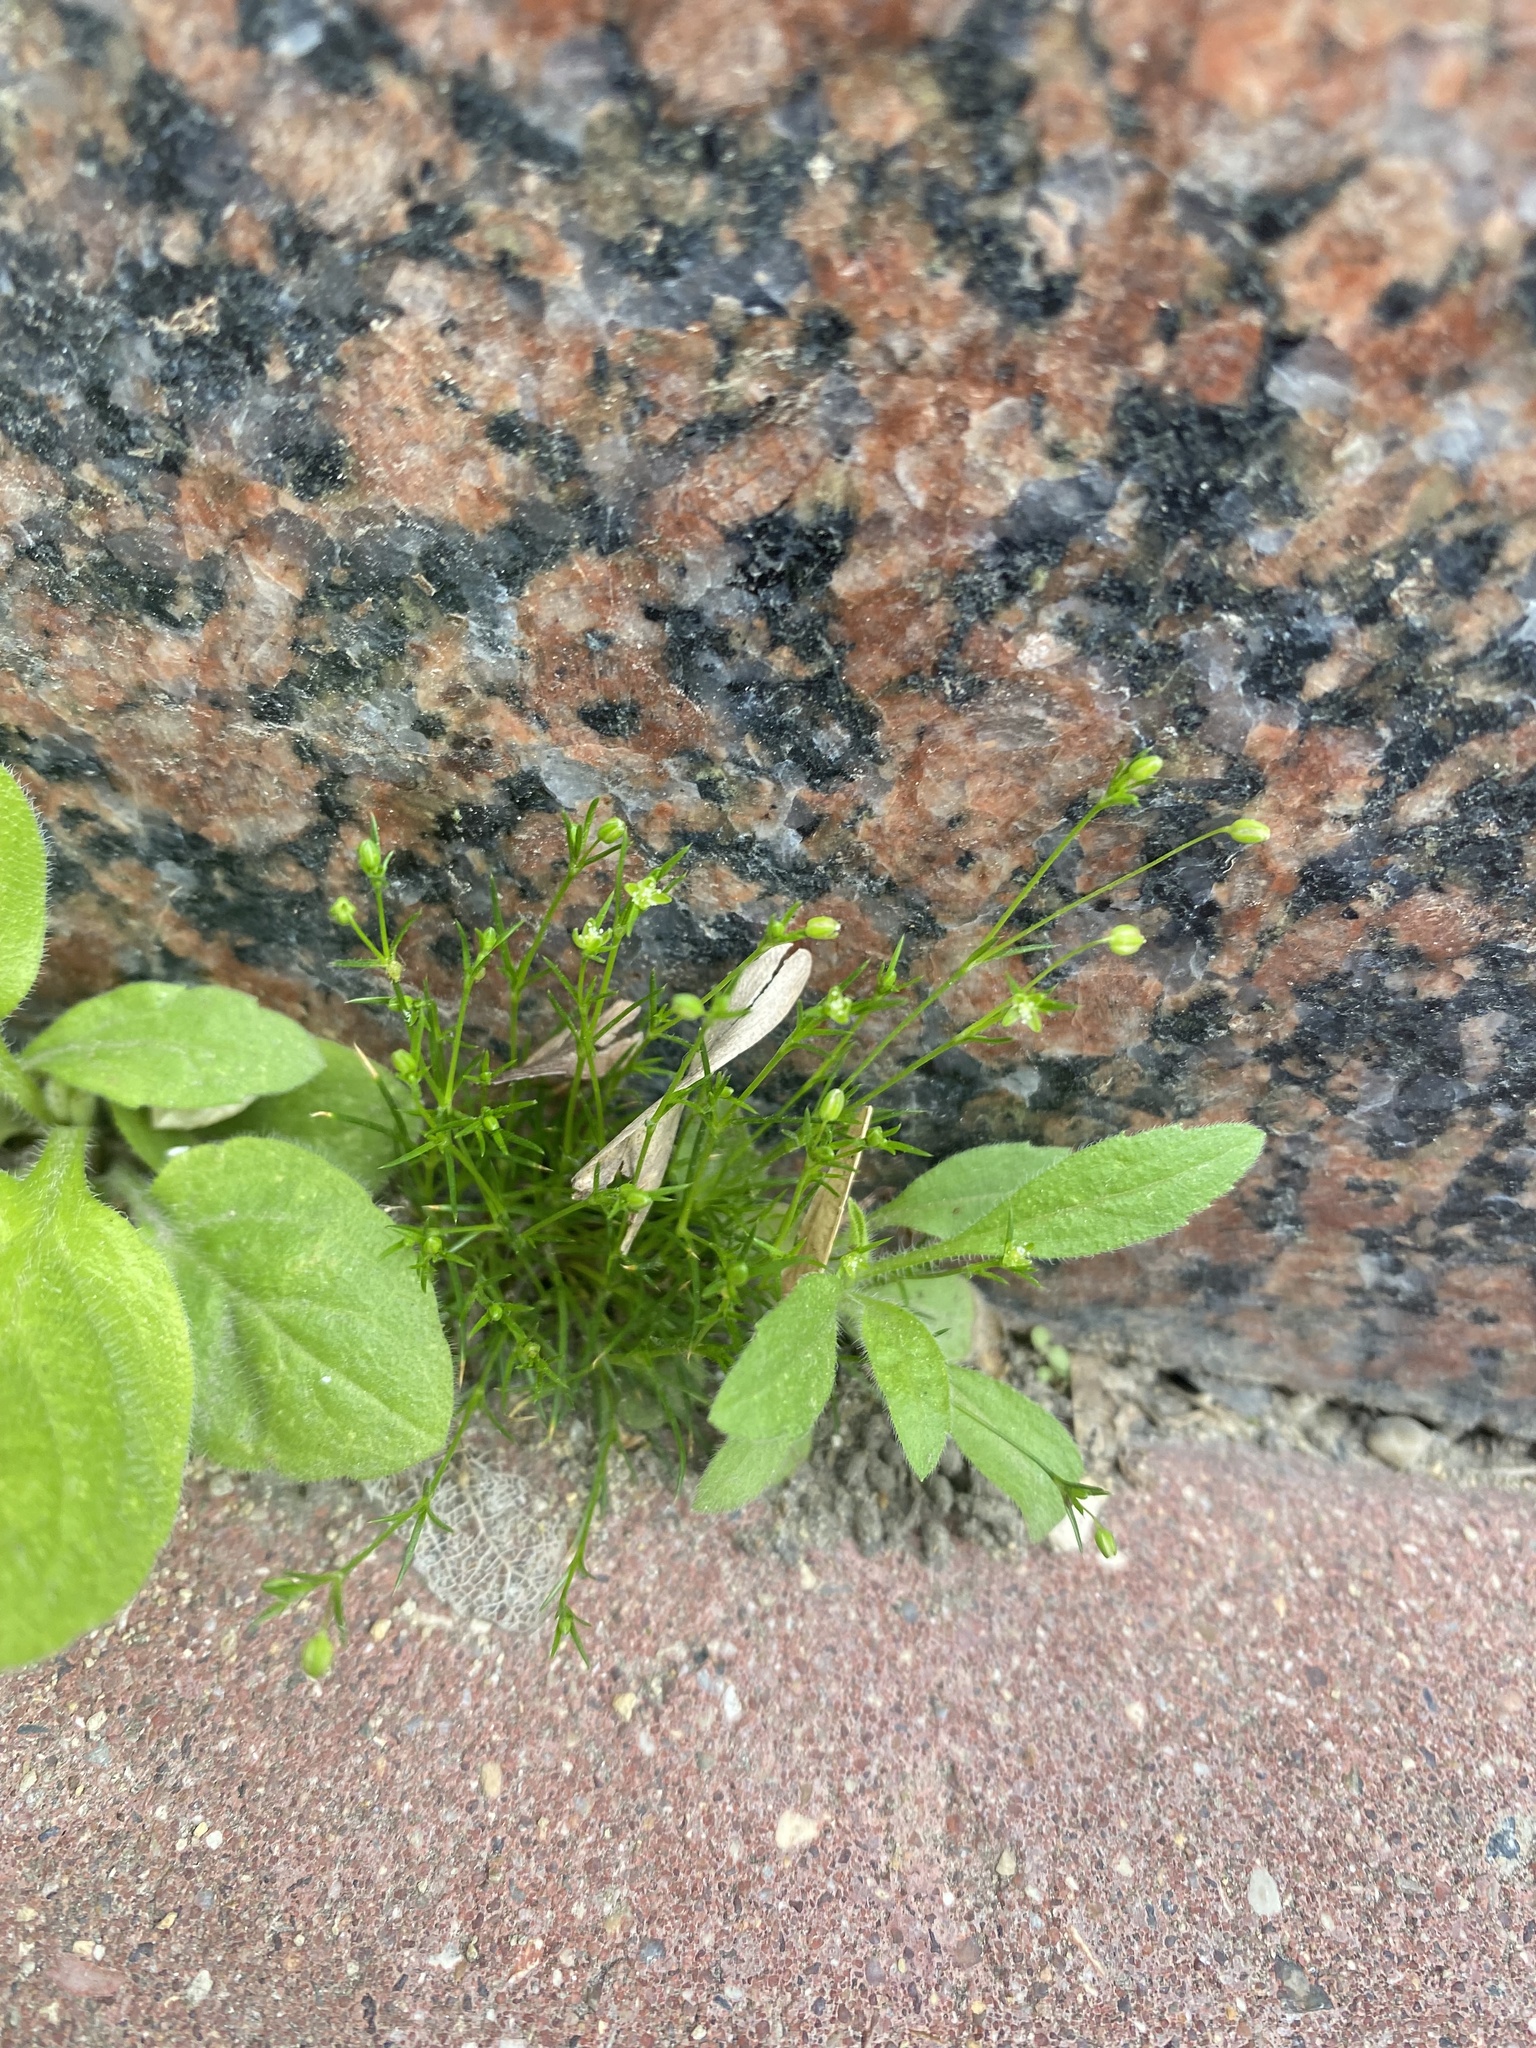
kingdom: Plantae
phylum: Tracheophyta
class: Magnoliopsida
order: Caryophyllales
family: Caryophyllaceae
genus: Sagina
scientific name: Sagina procumbens
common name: Procumbent pearlwort
